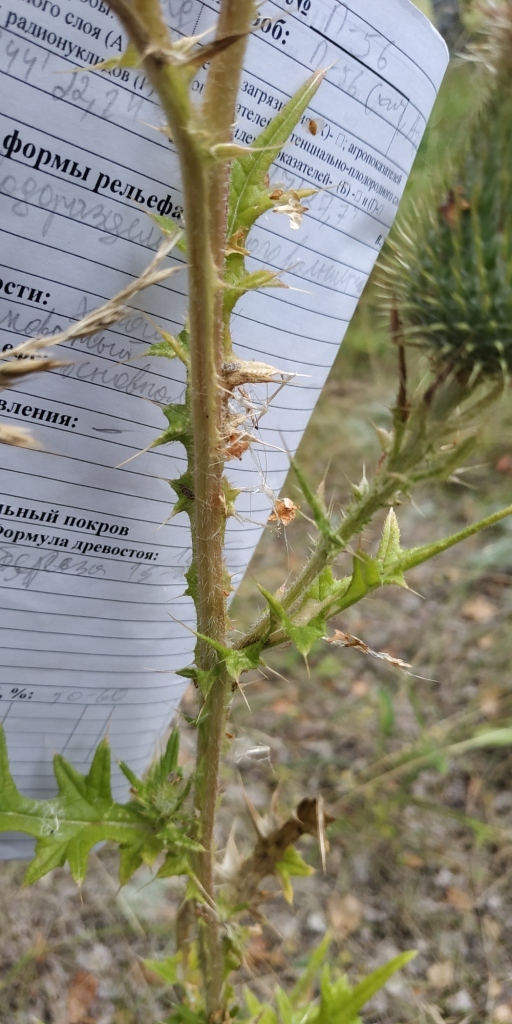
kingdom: Plantae
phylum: Tracheophyta
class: Magnoliopsida
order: Asterales
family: Asteraceae
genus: Cirsium
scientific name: Cirsium vulgare
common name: Bull thistle
